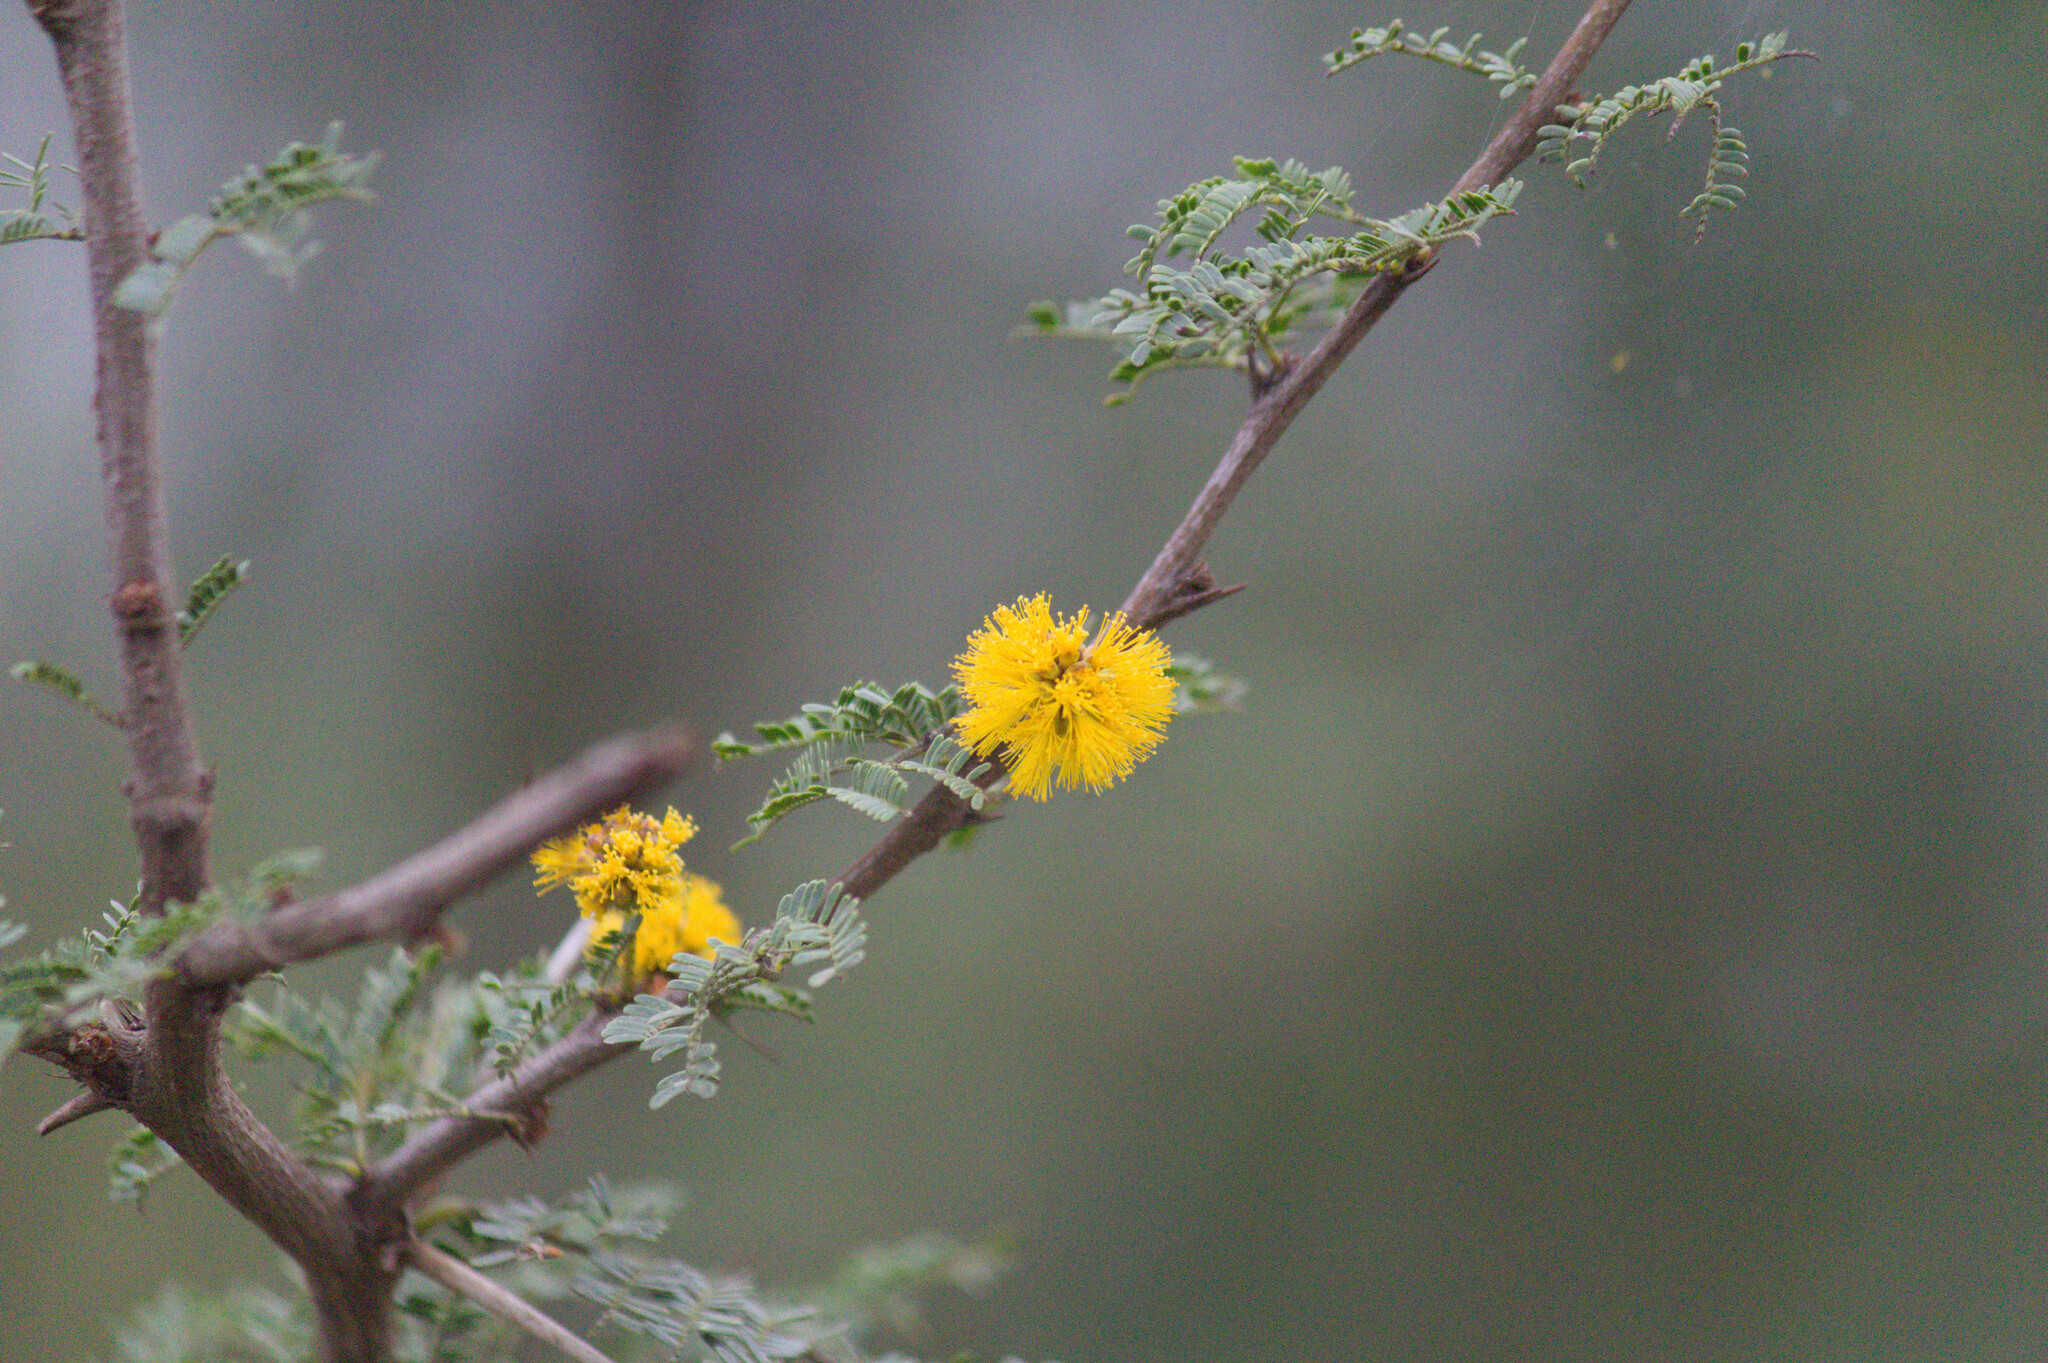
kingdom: Plantae
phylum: Tracheophyta
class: Magnoliopsida
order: Fabales
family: Fabaceae
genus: Vachellia
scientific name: Vachellia caven
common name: Roman cassie
